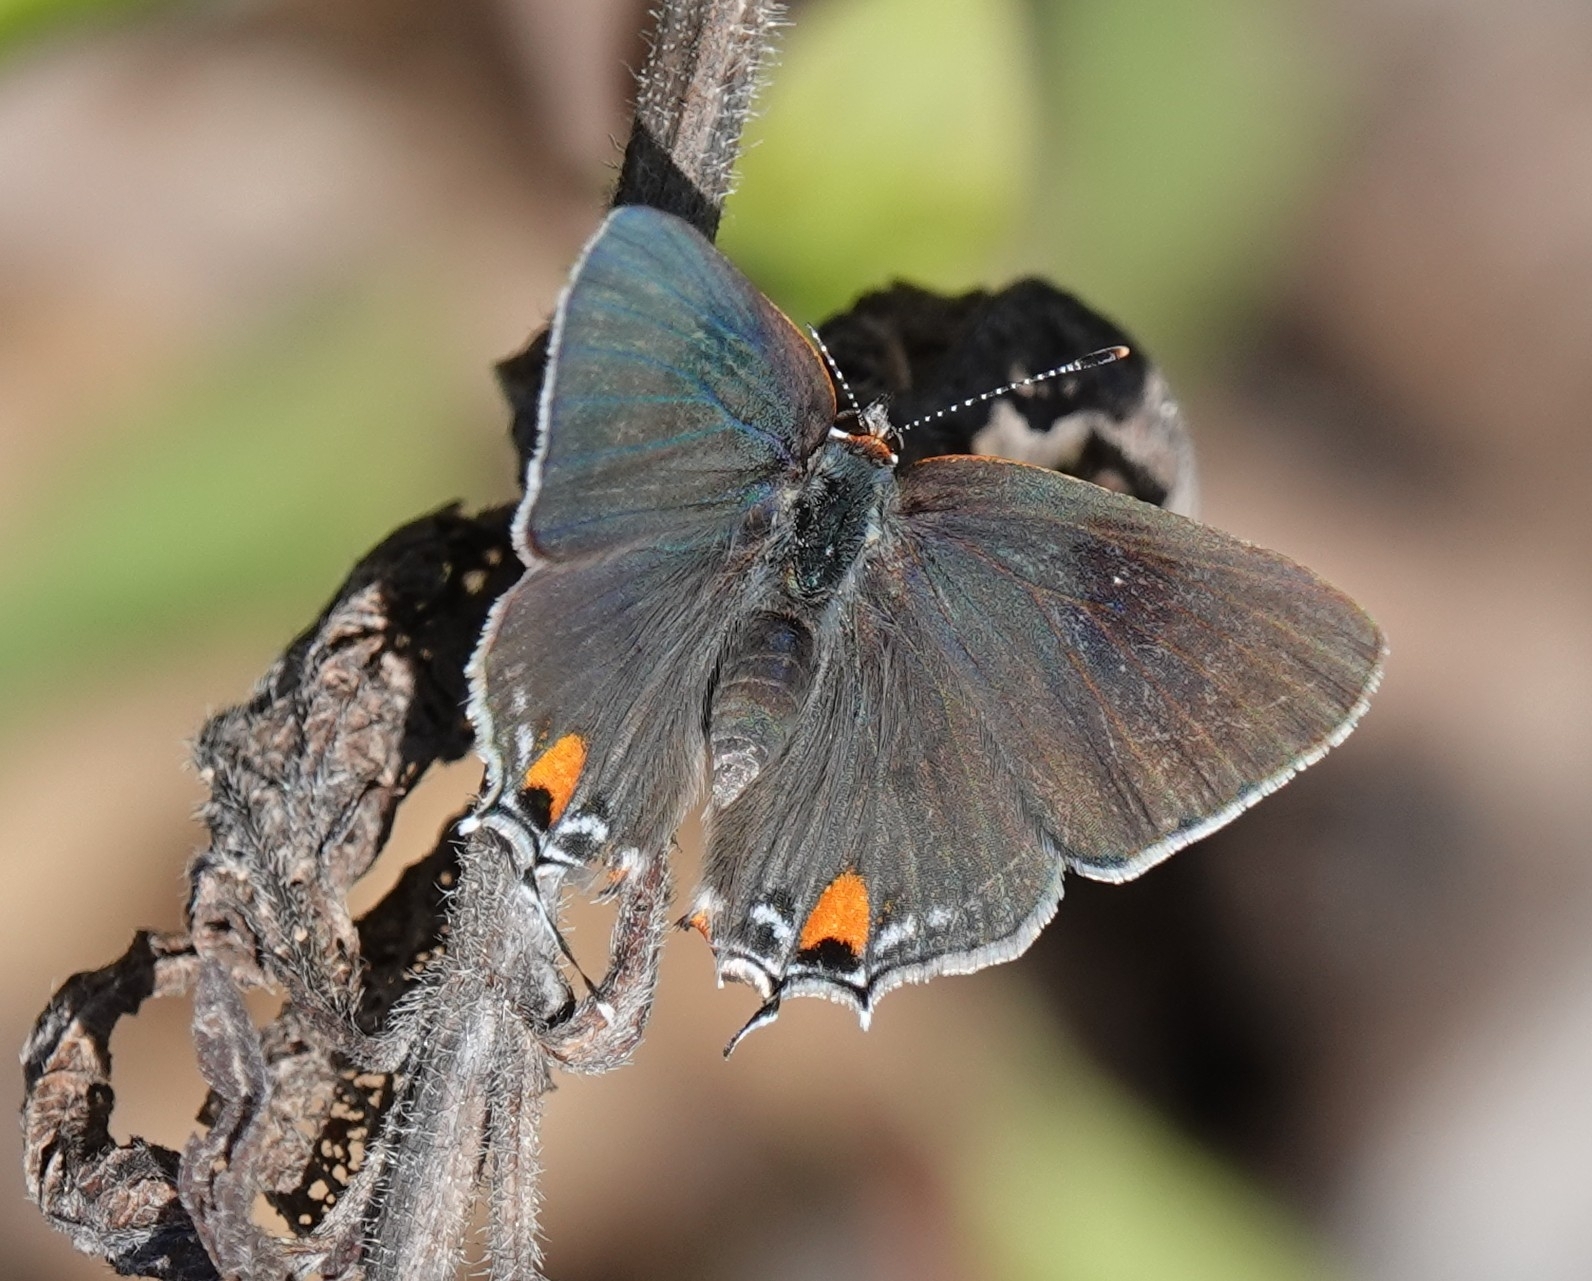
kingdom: Animalia
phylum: Arthropoda
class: Insecta
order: Lepidoptera
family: Lycaenidae
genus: Strymon
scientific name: Strymon melinus
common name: Gray hairstreak
